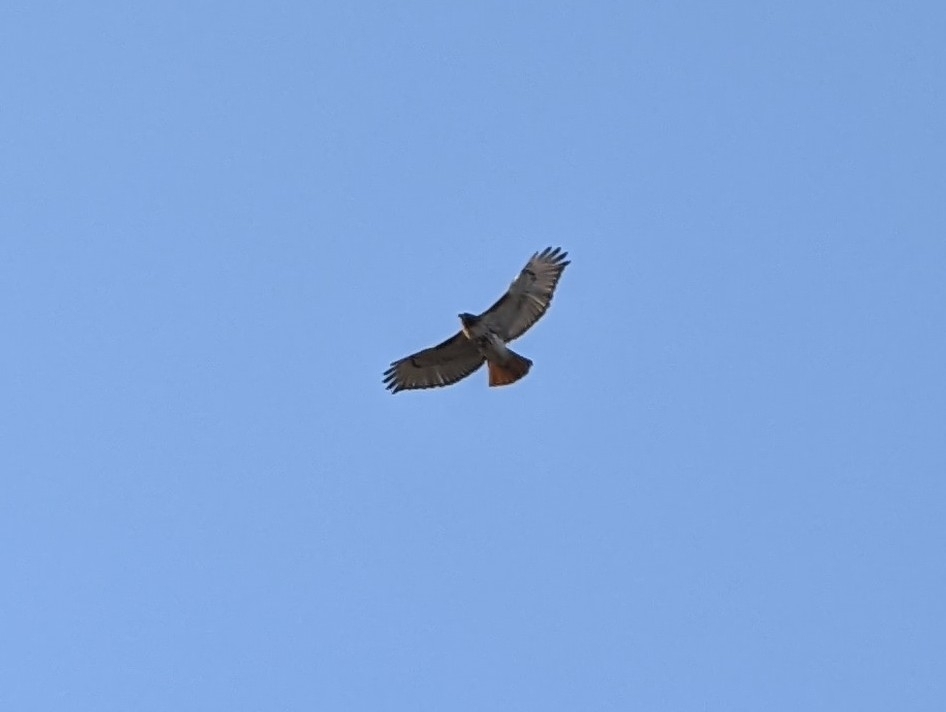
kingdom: Animalia
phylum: Chordata
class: Aves
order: Accipitriformes
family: Accipitridae
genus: Buteo
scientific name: Buteo jamaicensis
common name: Red-tailed hawk
